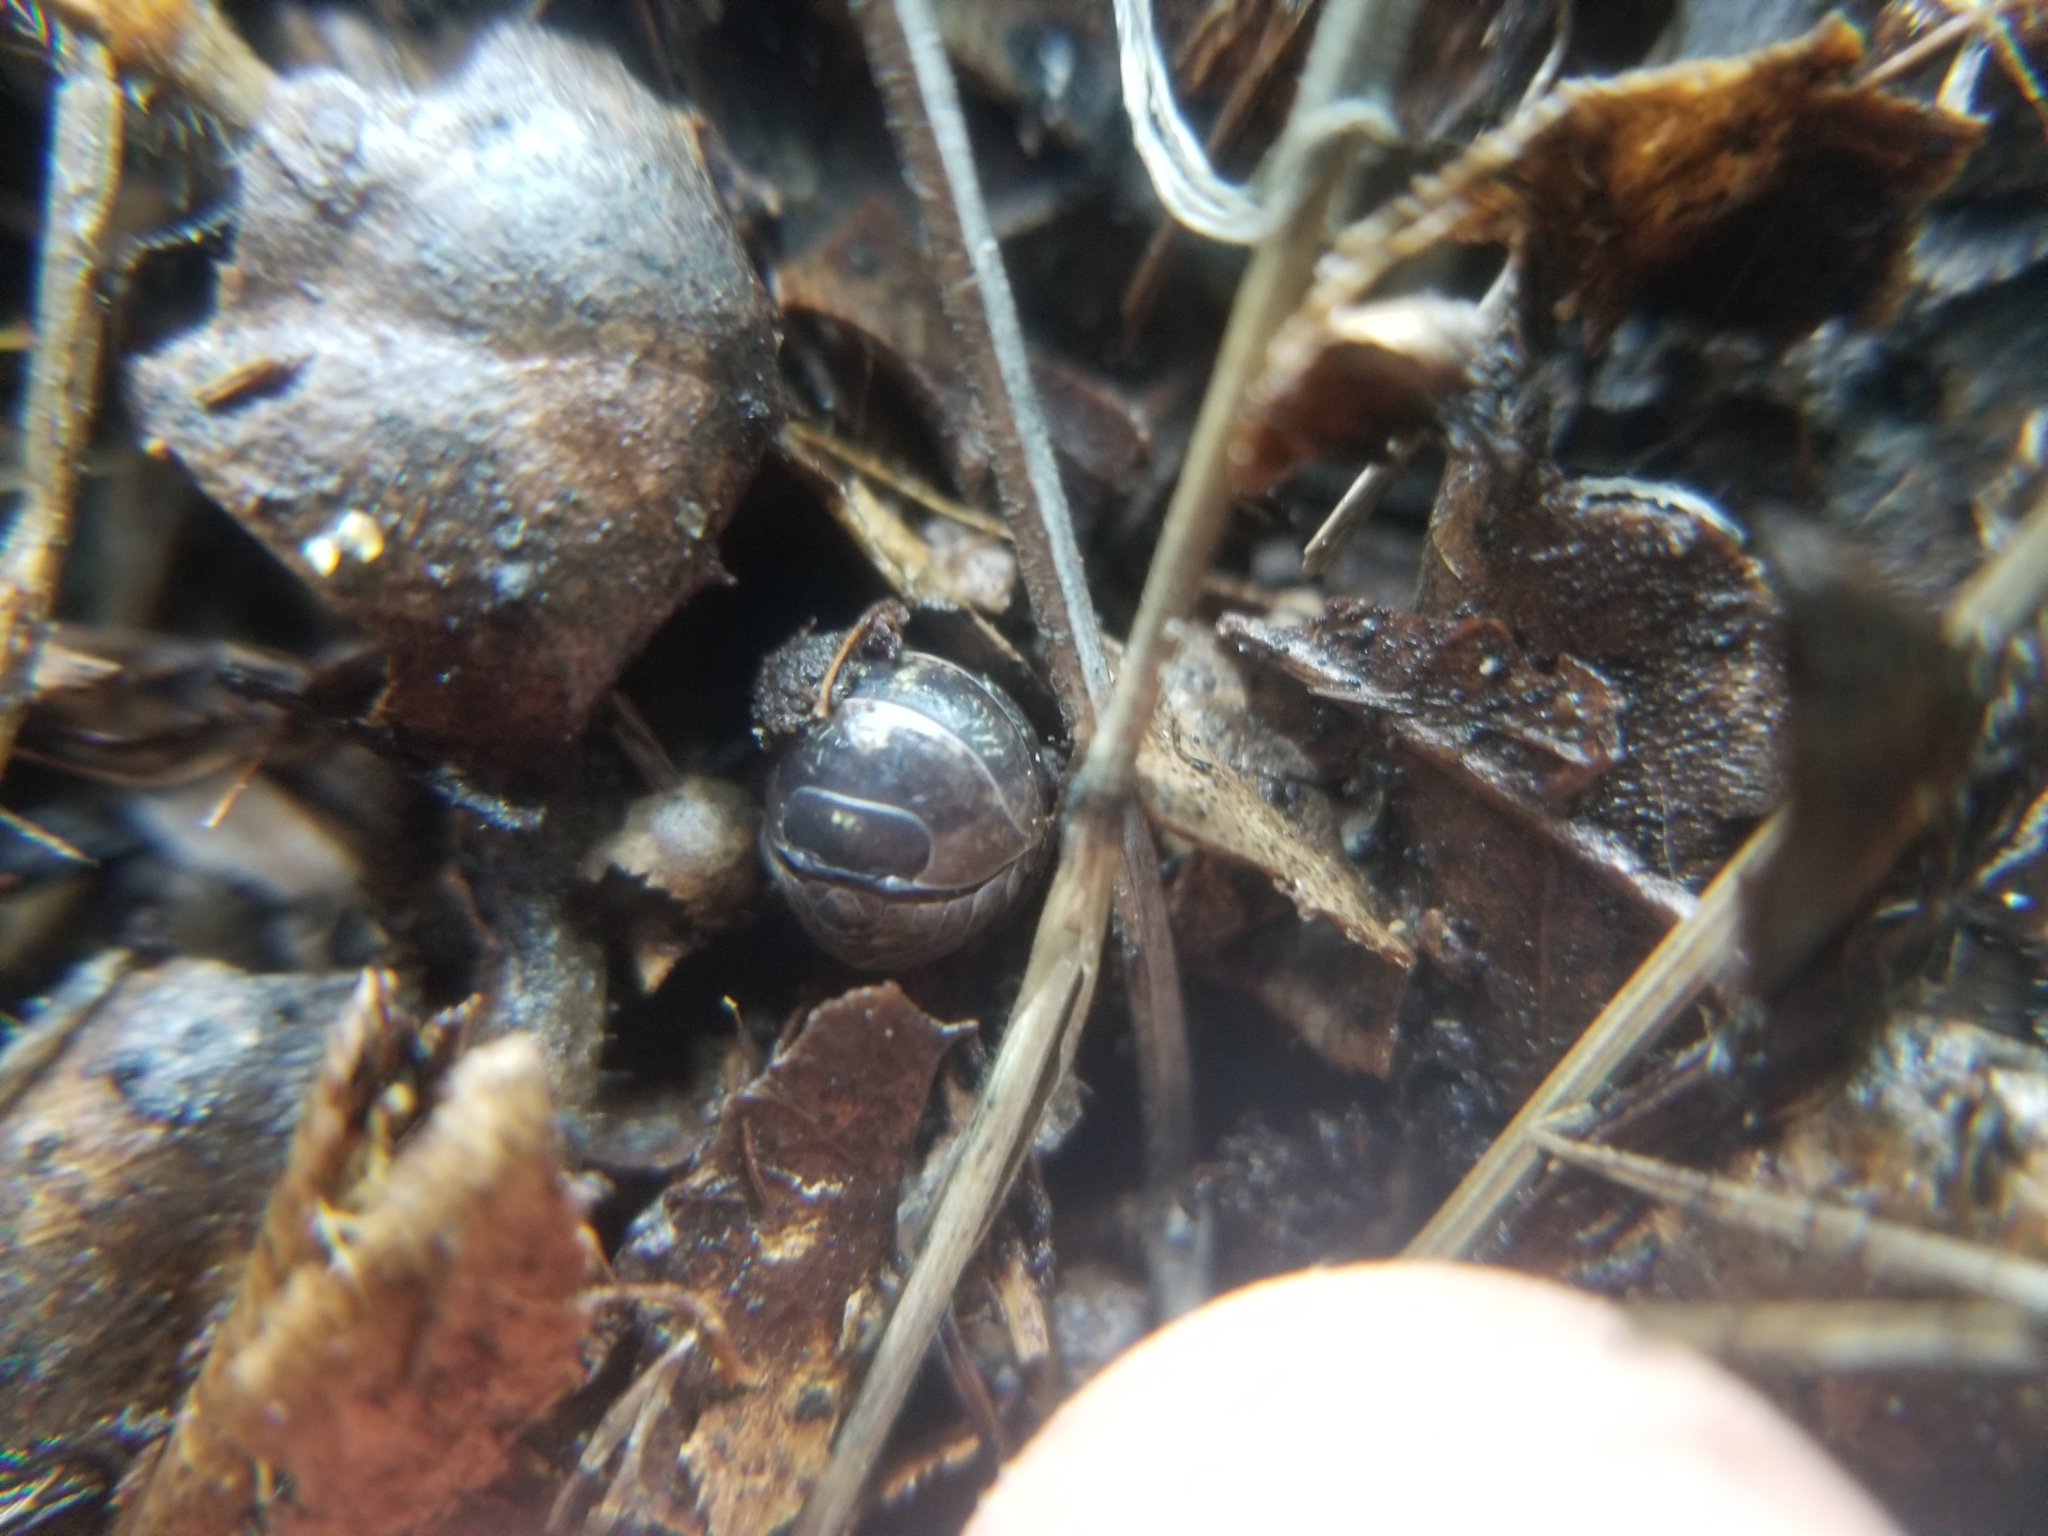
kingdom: Animalia
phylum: Arthropoda
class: Malacostraca
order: Isopoda
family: Armadillidiidae
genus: Armadillidium
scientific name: Armadillidium vulgare
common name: Common pill woodlouse
